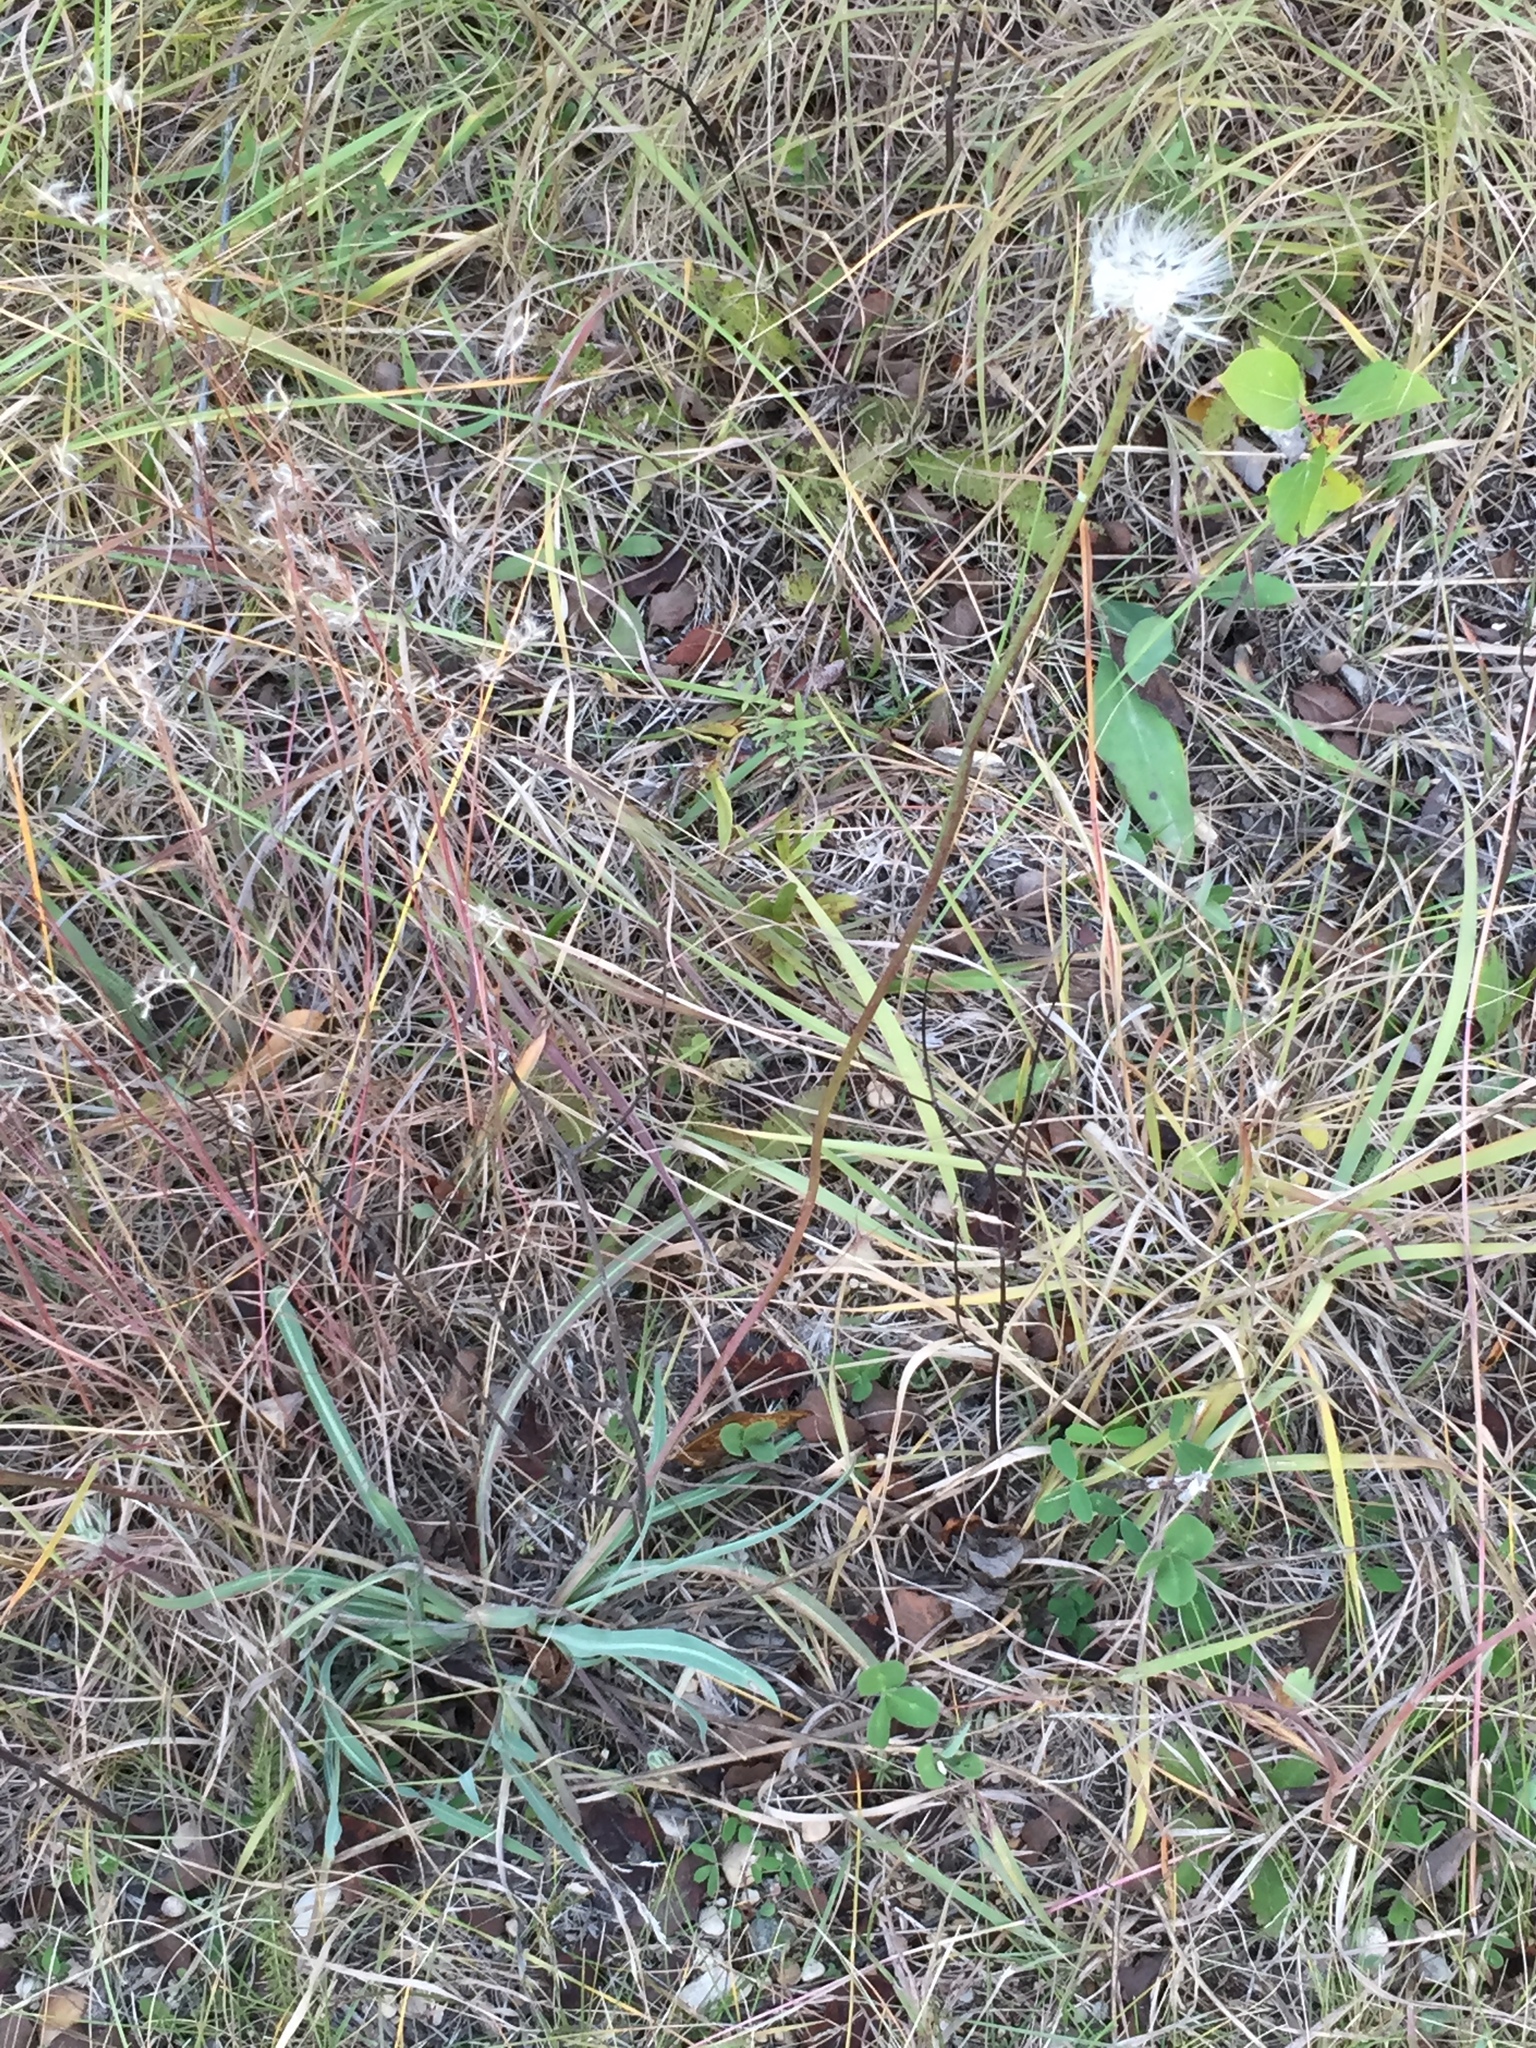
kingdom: Plantae
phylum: Tracheophyta
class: Magnoliopsida
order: Asterales
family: Asteraceae
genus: Agoseris
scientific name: Agoseris glauca
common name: Prairie agoseris
